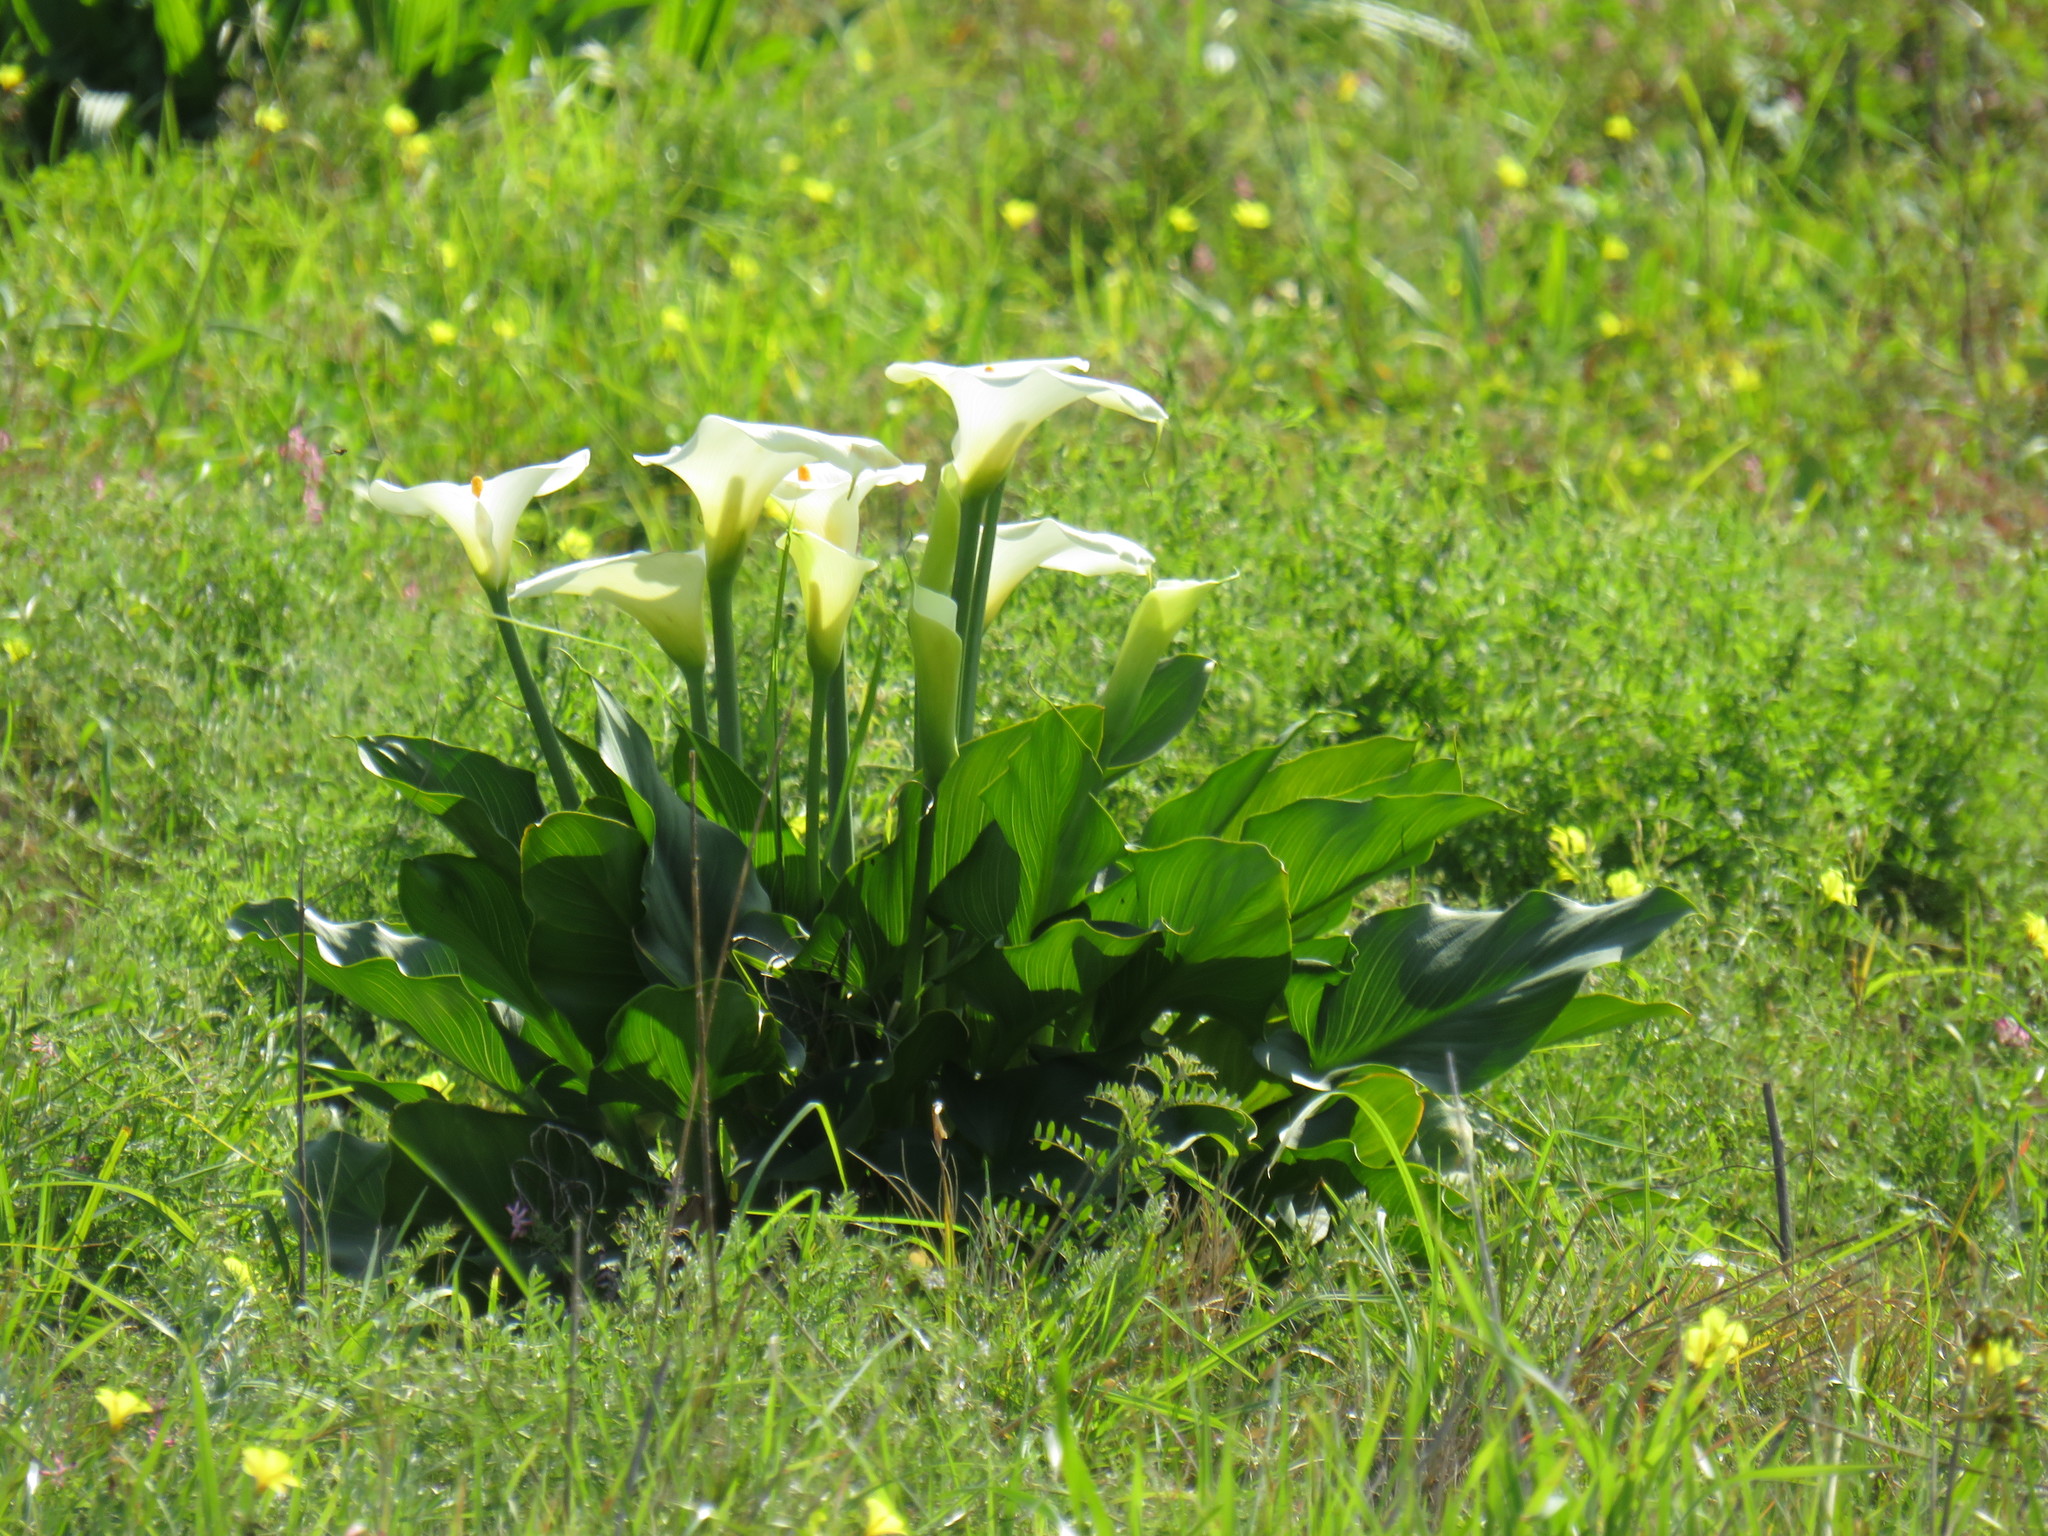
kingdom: Plantae
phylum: Tracheophyta
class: Liliopsida
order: Alismatales
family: Araceae
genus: Zantedeschia
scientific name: Zantedeschia aethiopica
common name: Altar-lily
